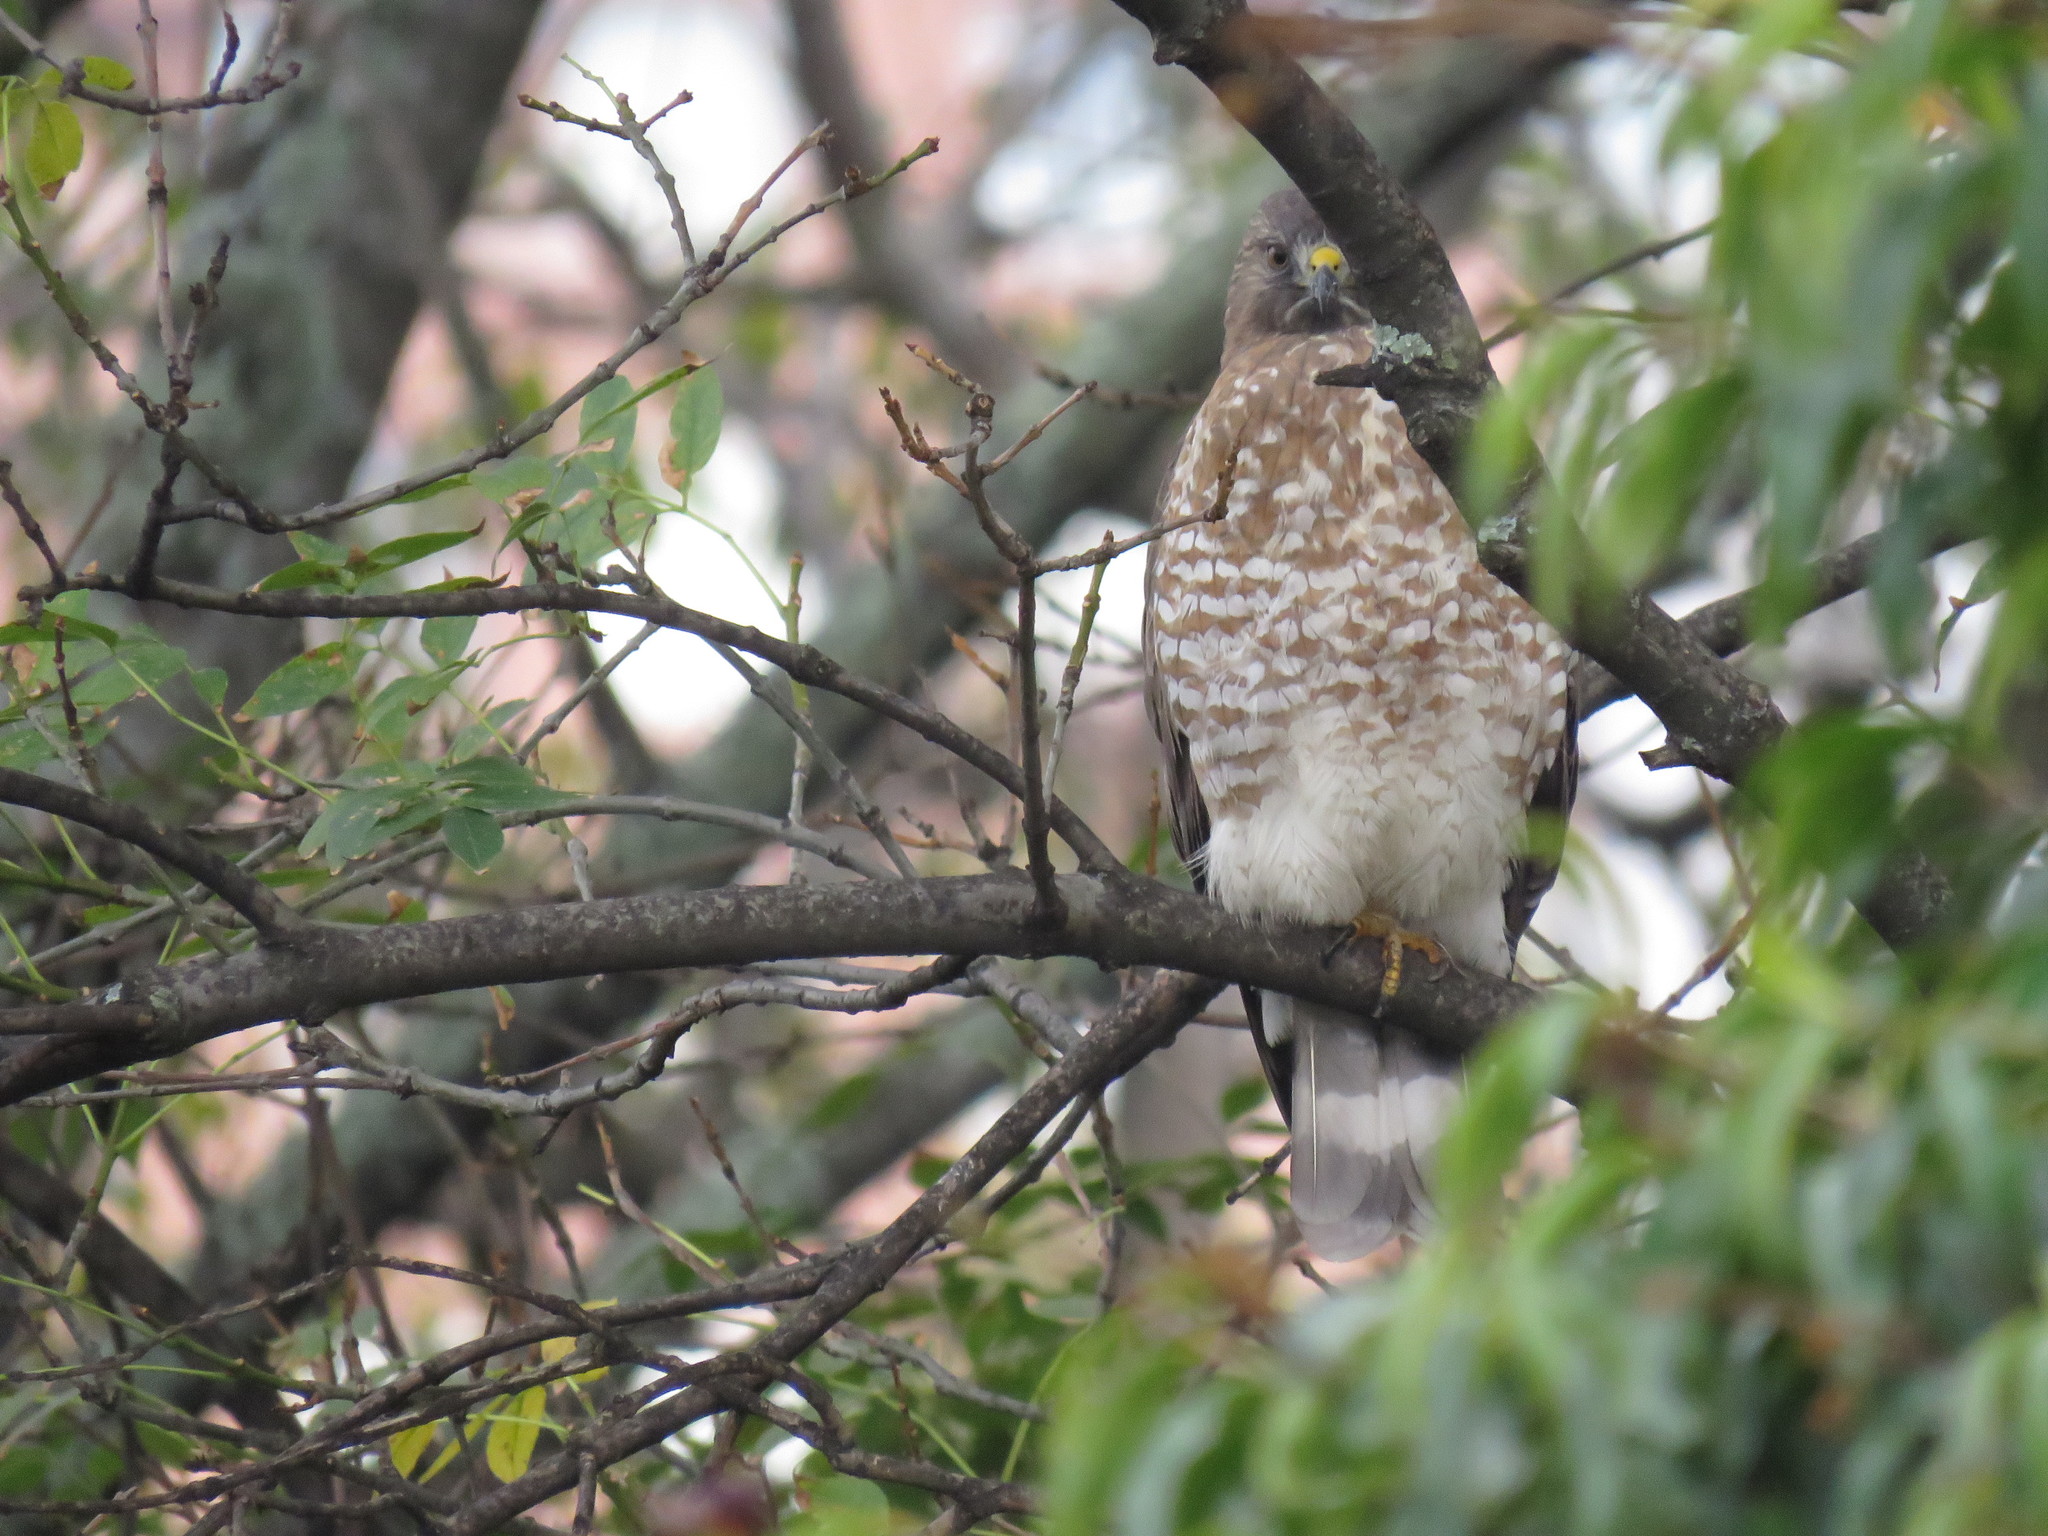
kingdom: Animalia
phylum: Chordata
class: Aves
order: Accipitriformes
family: Accipitridae
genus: Buteo
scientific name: Buteo platypterus
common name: Broad-winged hawk
